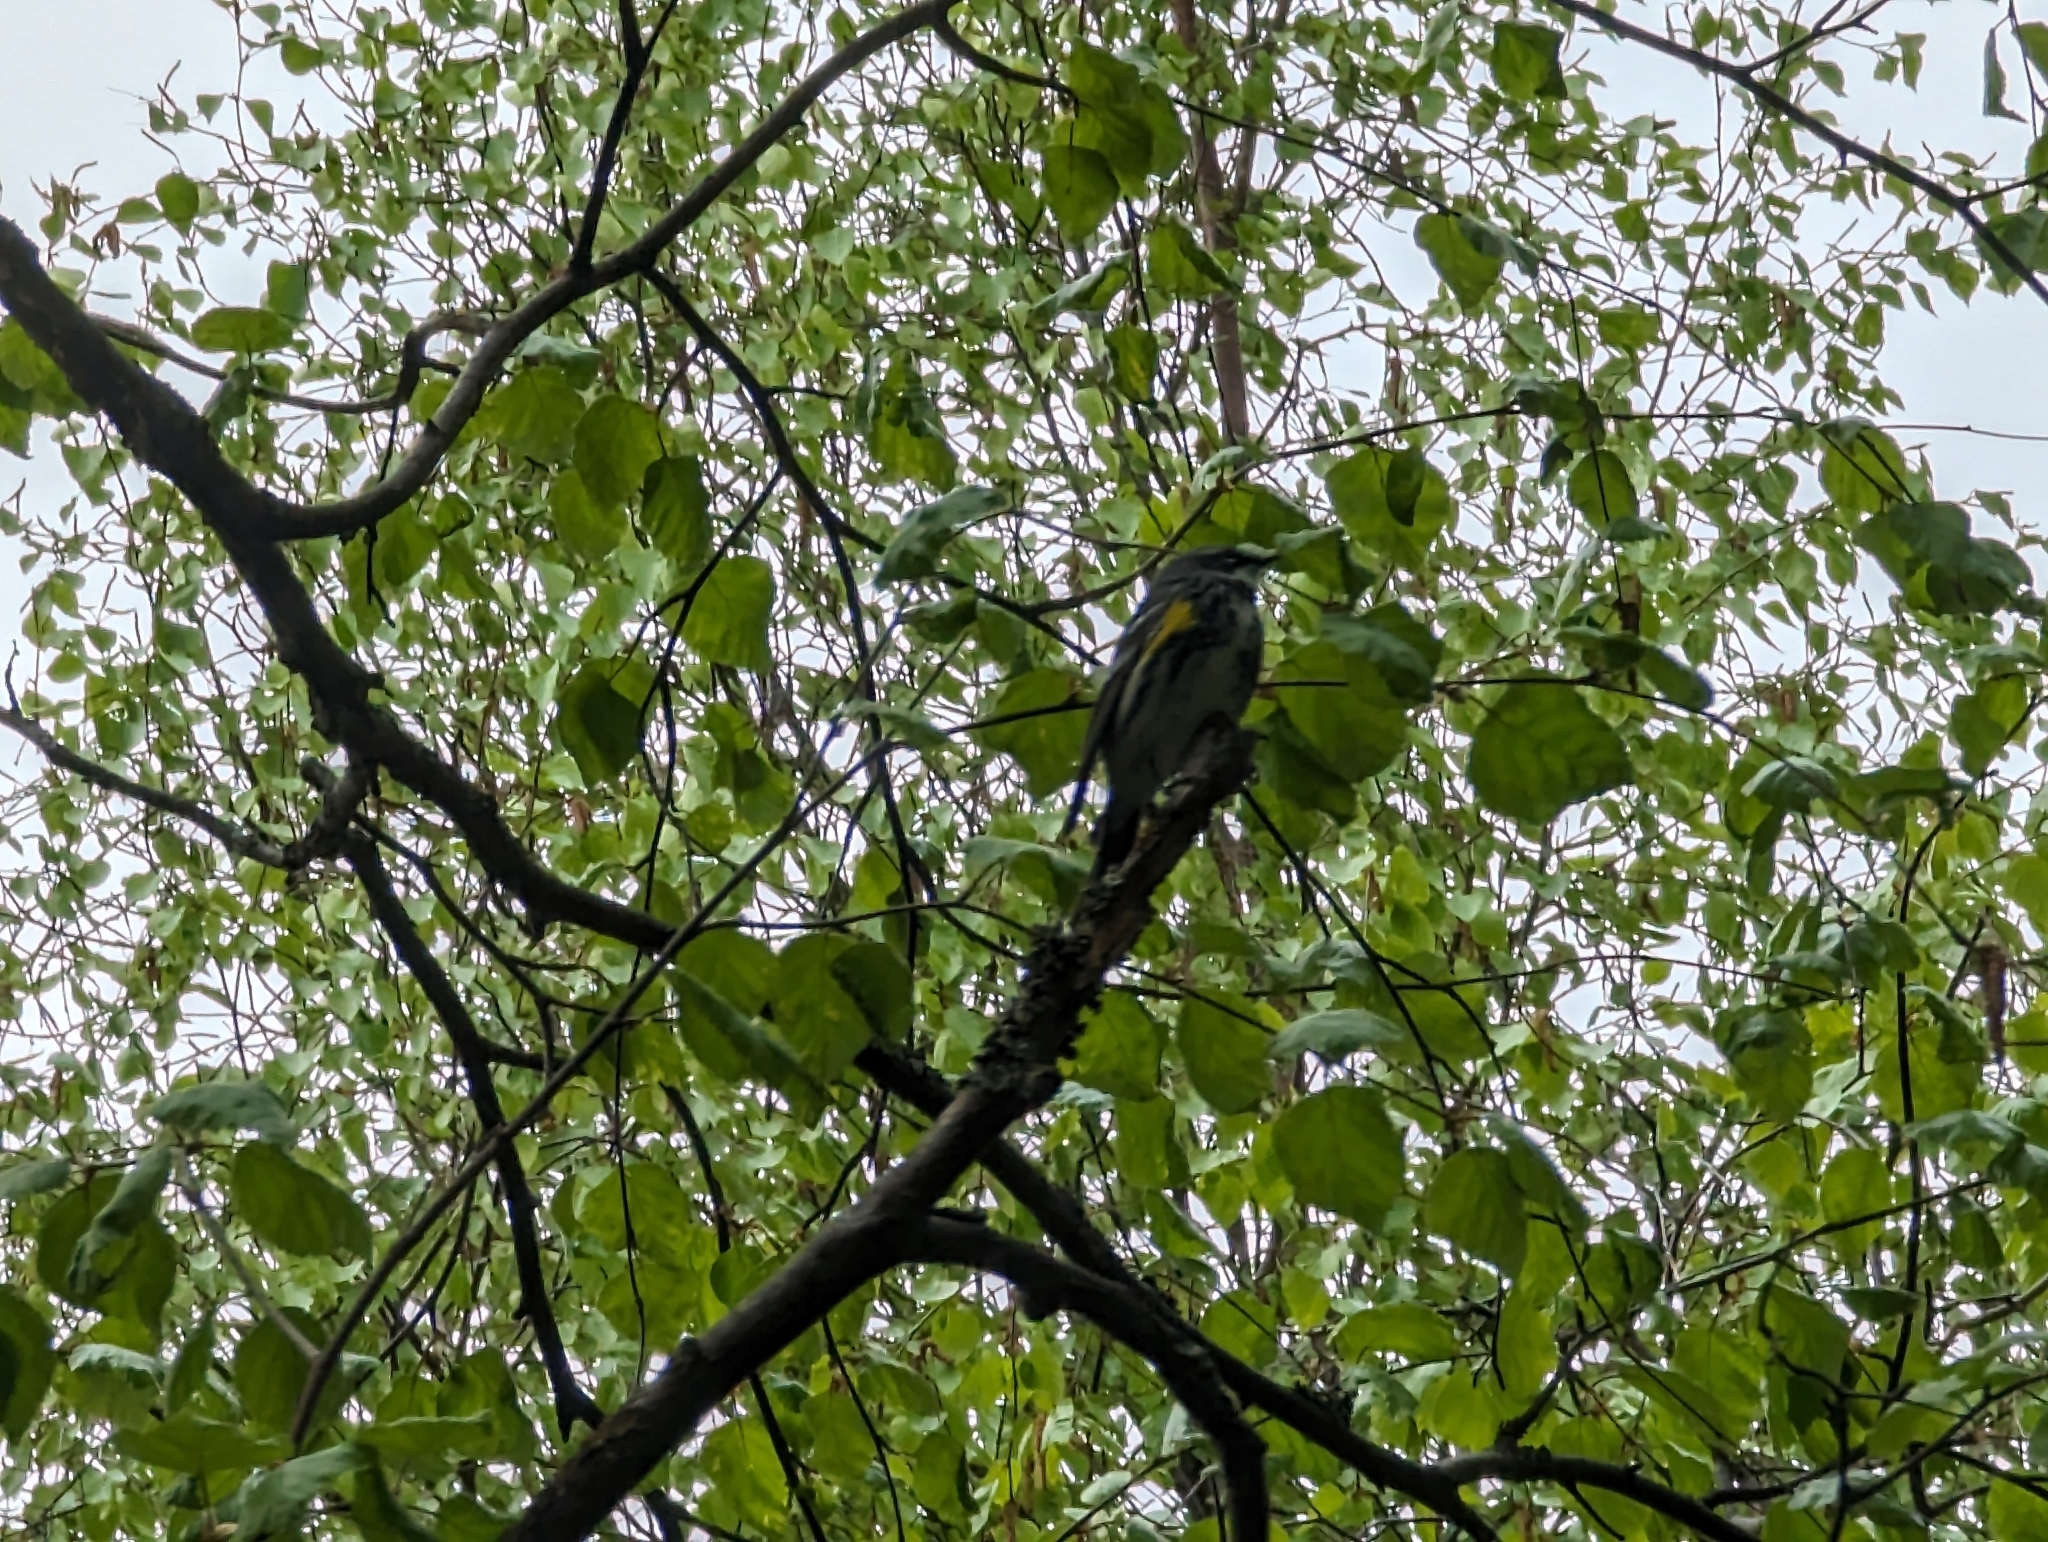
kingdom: Animalia
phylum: Chordata
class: Aves
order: Passeriformes
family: Parulidae
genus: Setophaga
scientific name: Setophaga coronata
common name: Myrtle warbler
